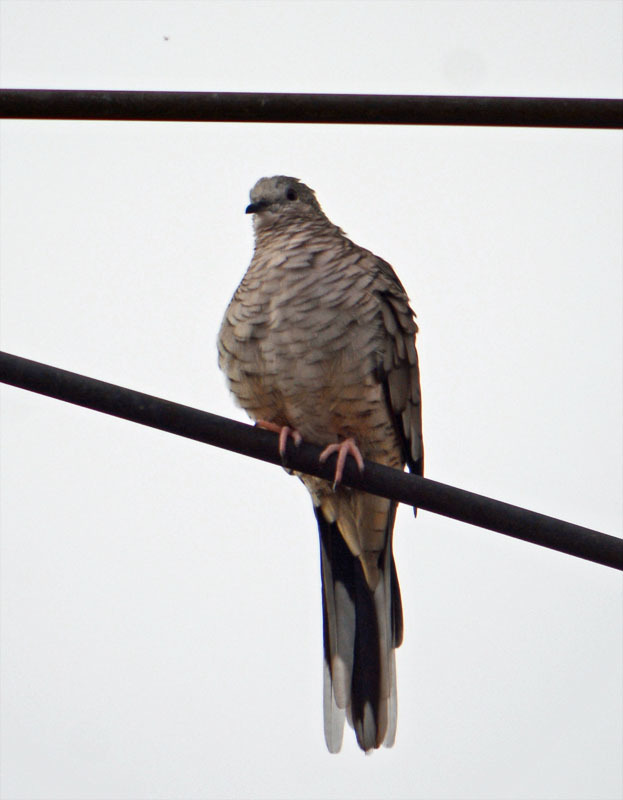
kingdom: Animalia
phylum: Chordata
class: Aves
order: Columbiformes
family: Columbidae
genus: Columbina
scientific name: Columbina inca
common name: Inca dove
